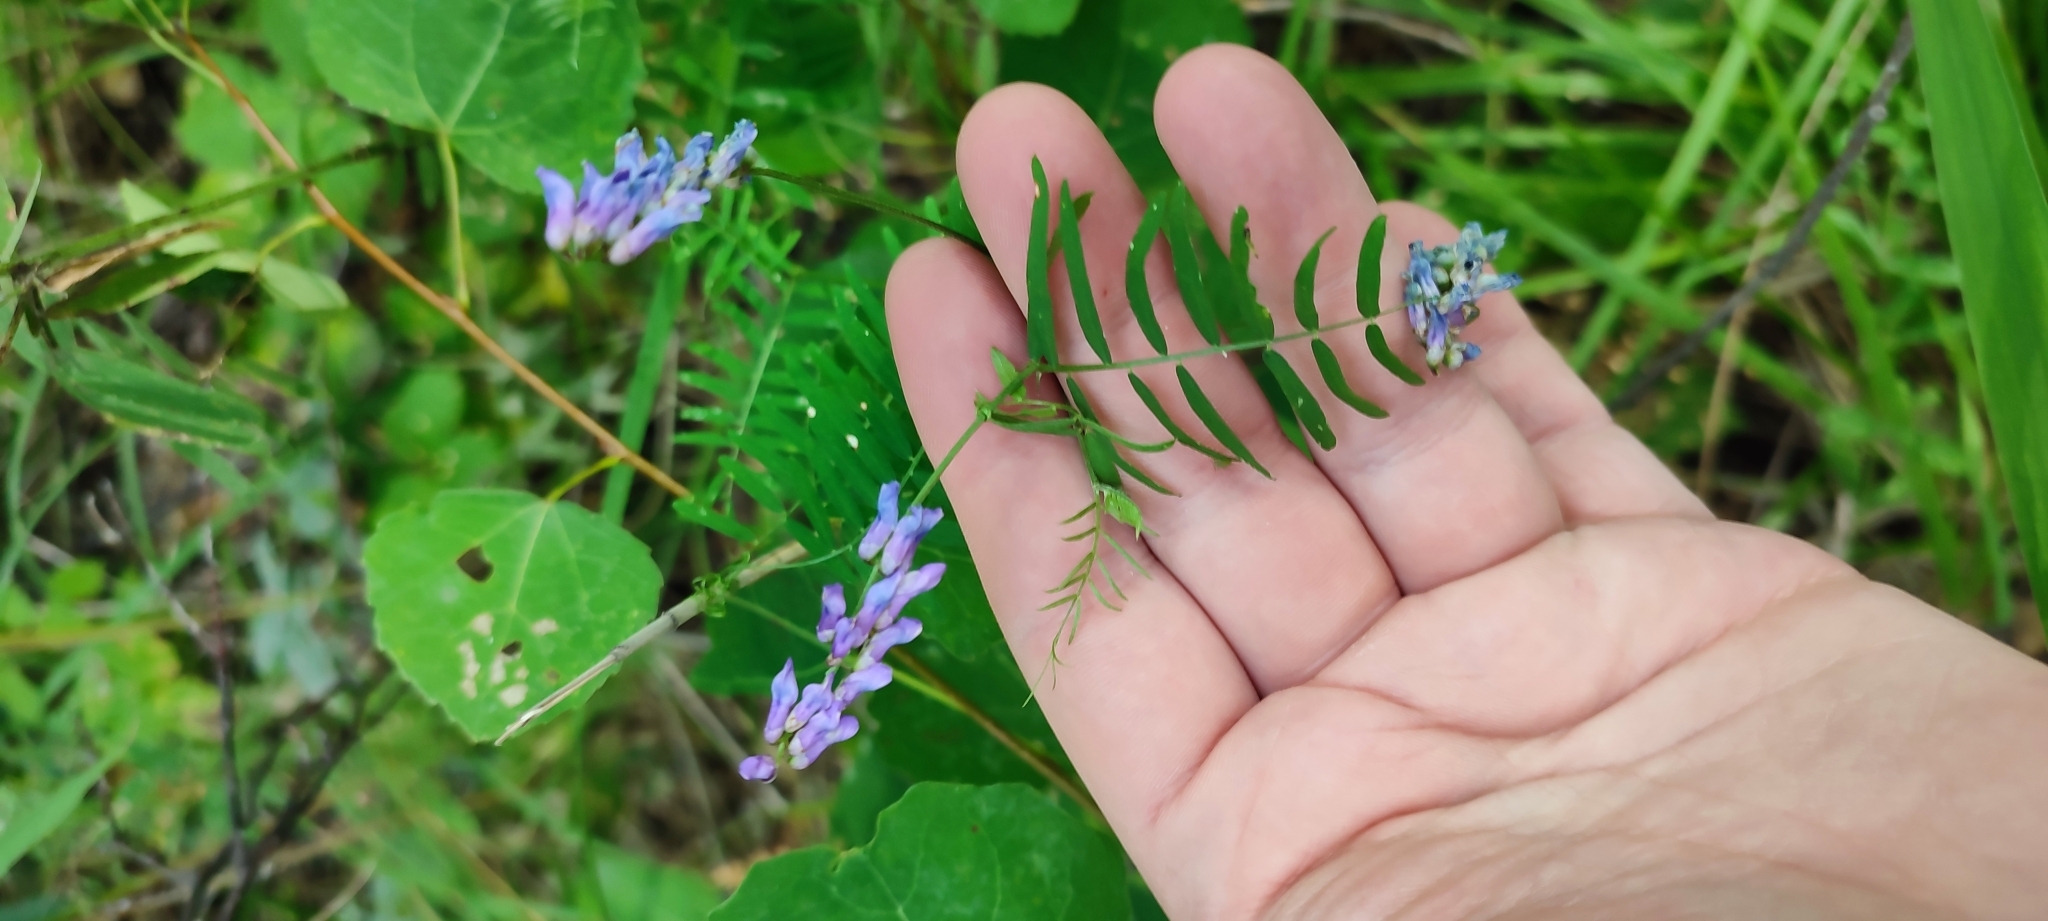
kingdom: Plantae
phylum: Tracheophyta
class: Magnoliopsida
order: Fabales
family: Fabaceae
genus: Vicia
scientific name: Vicia cracca
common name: Bird vetch
